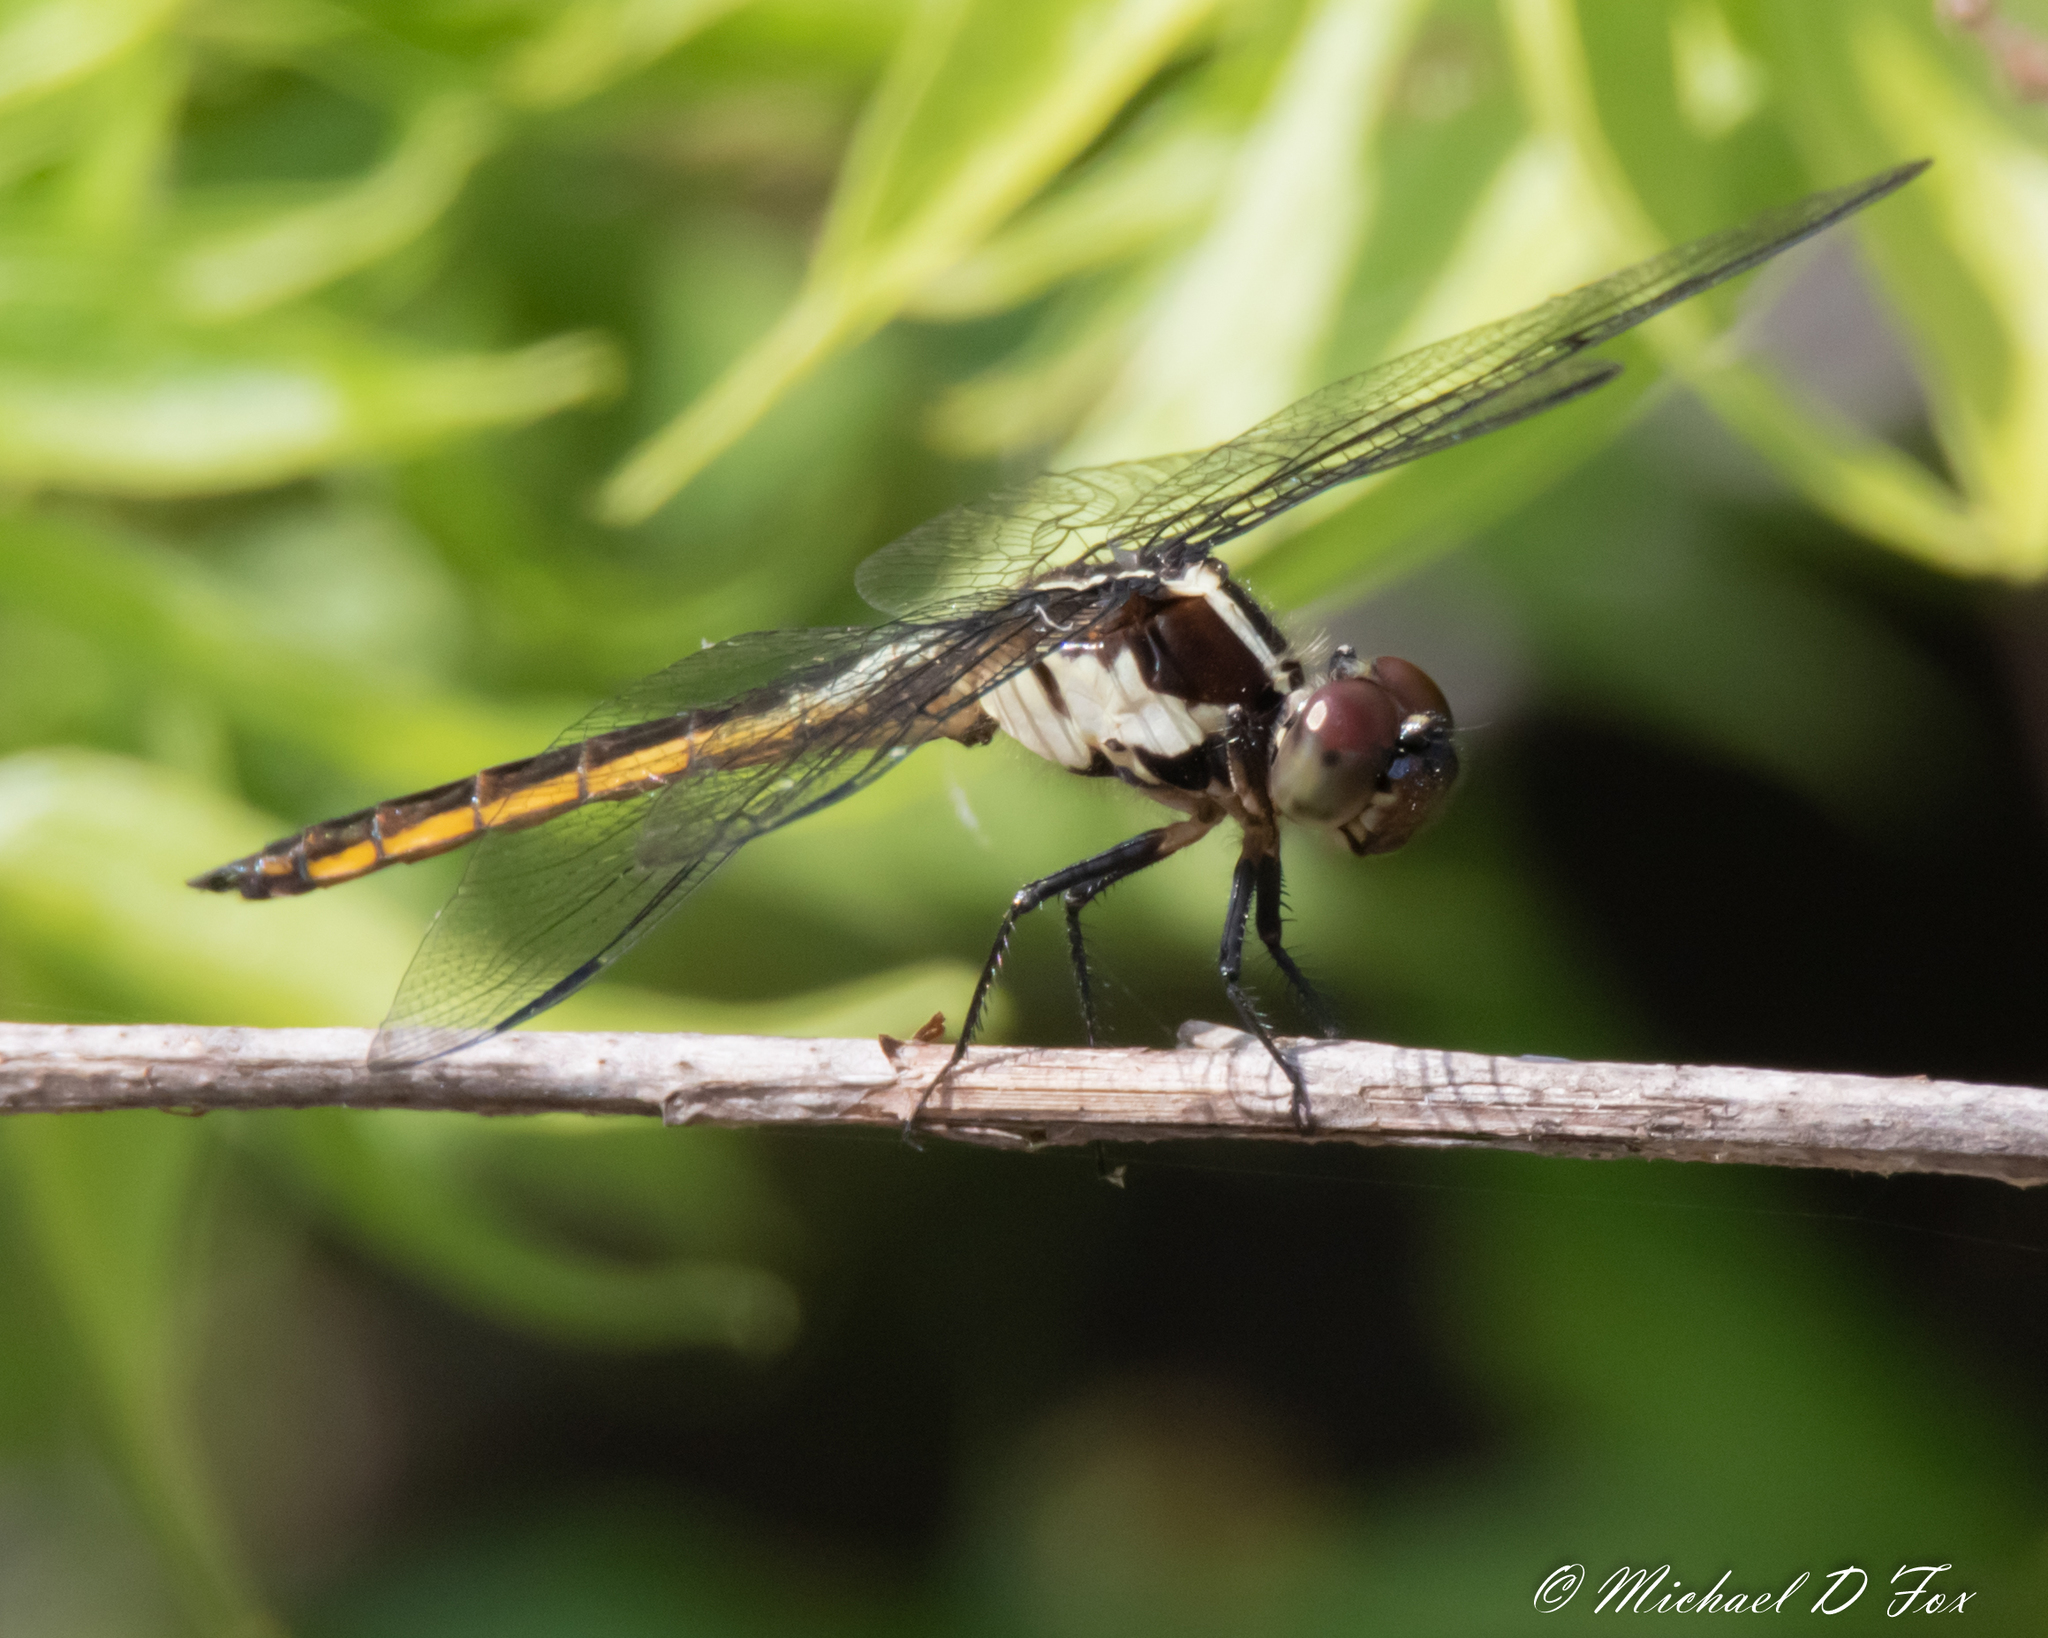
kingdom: Animalia
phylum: Arthropoda
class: Insecta
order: Odonata
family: Libellulidae
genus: Libellula
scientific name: Libellula incesta
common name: Slaty skimmer
